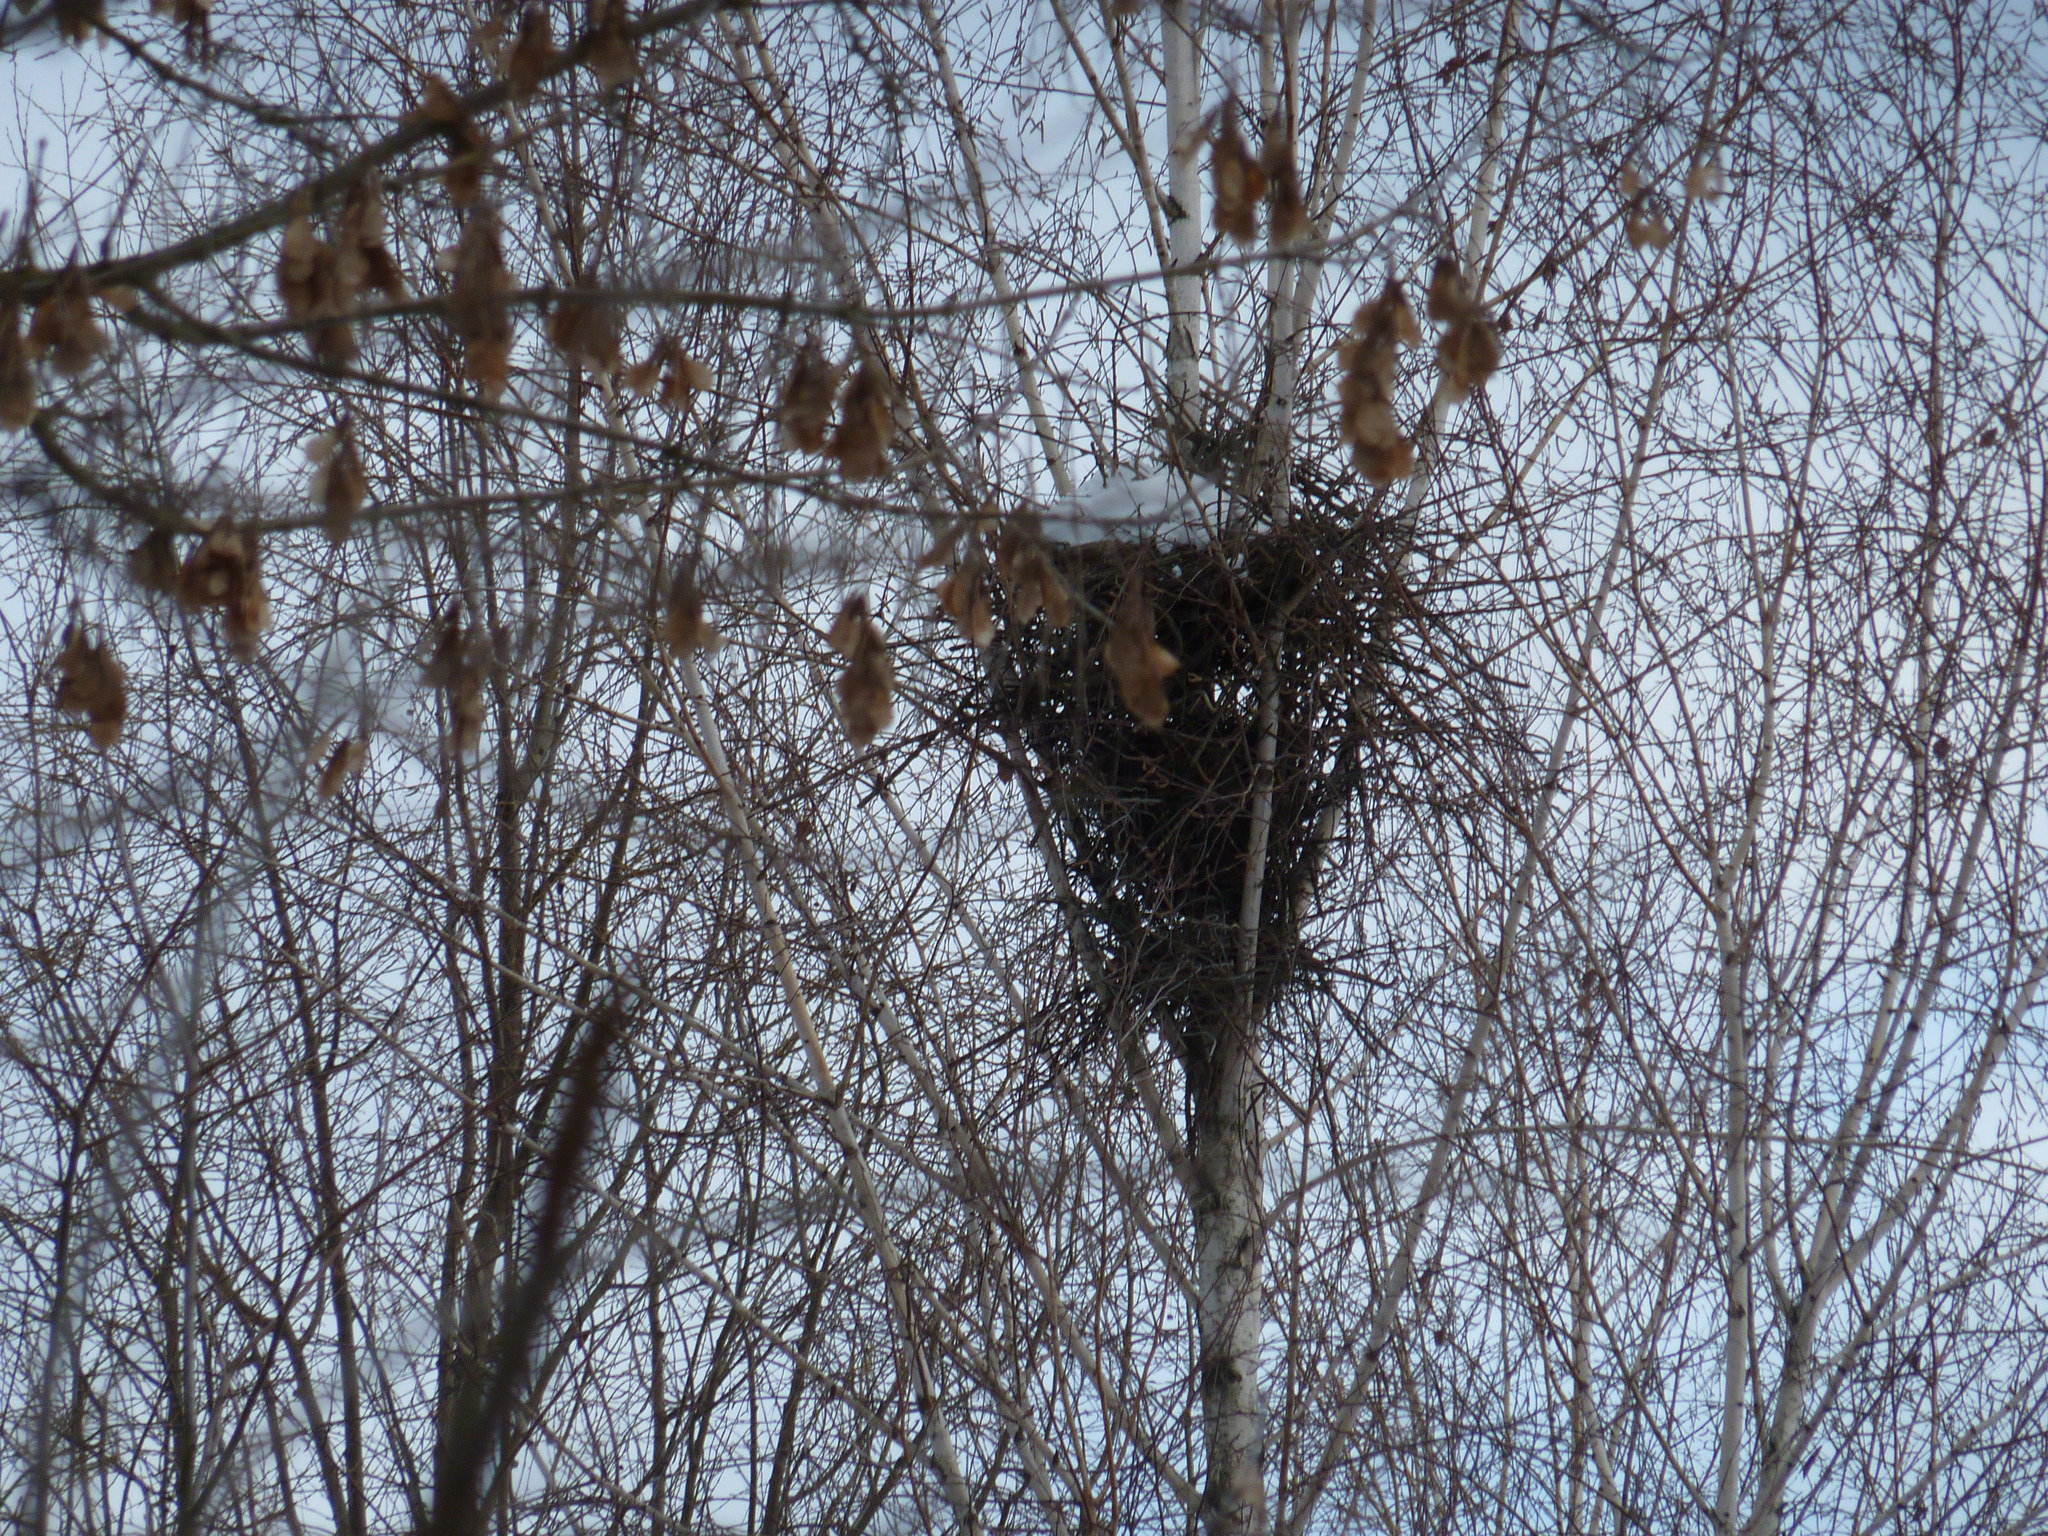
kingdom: Animalia
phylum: Chordata
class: Aves
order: Passeriformes
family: Corvidae
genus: Pica
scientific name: Pica pica
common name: Eurasian magpie
